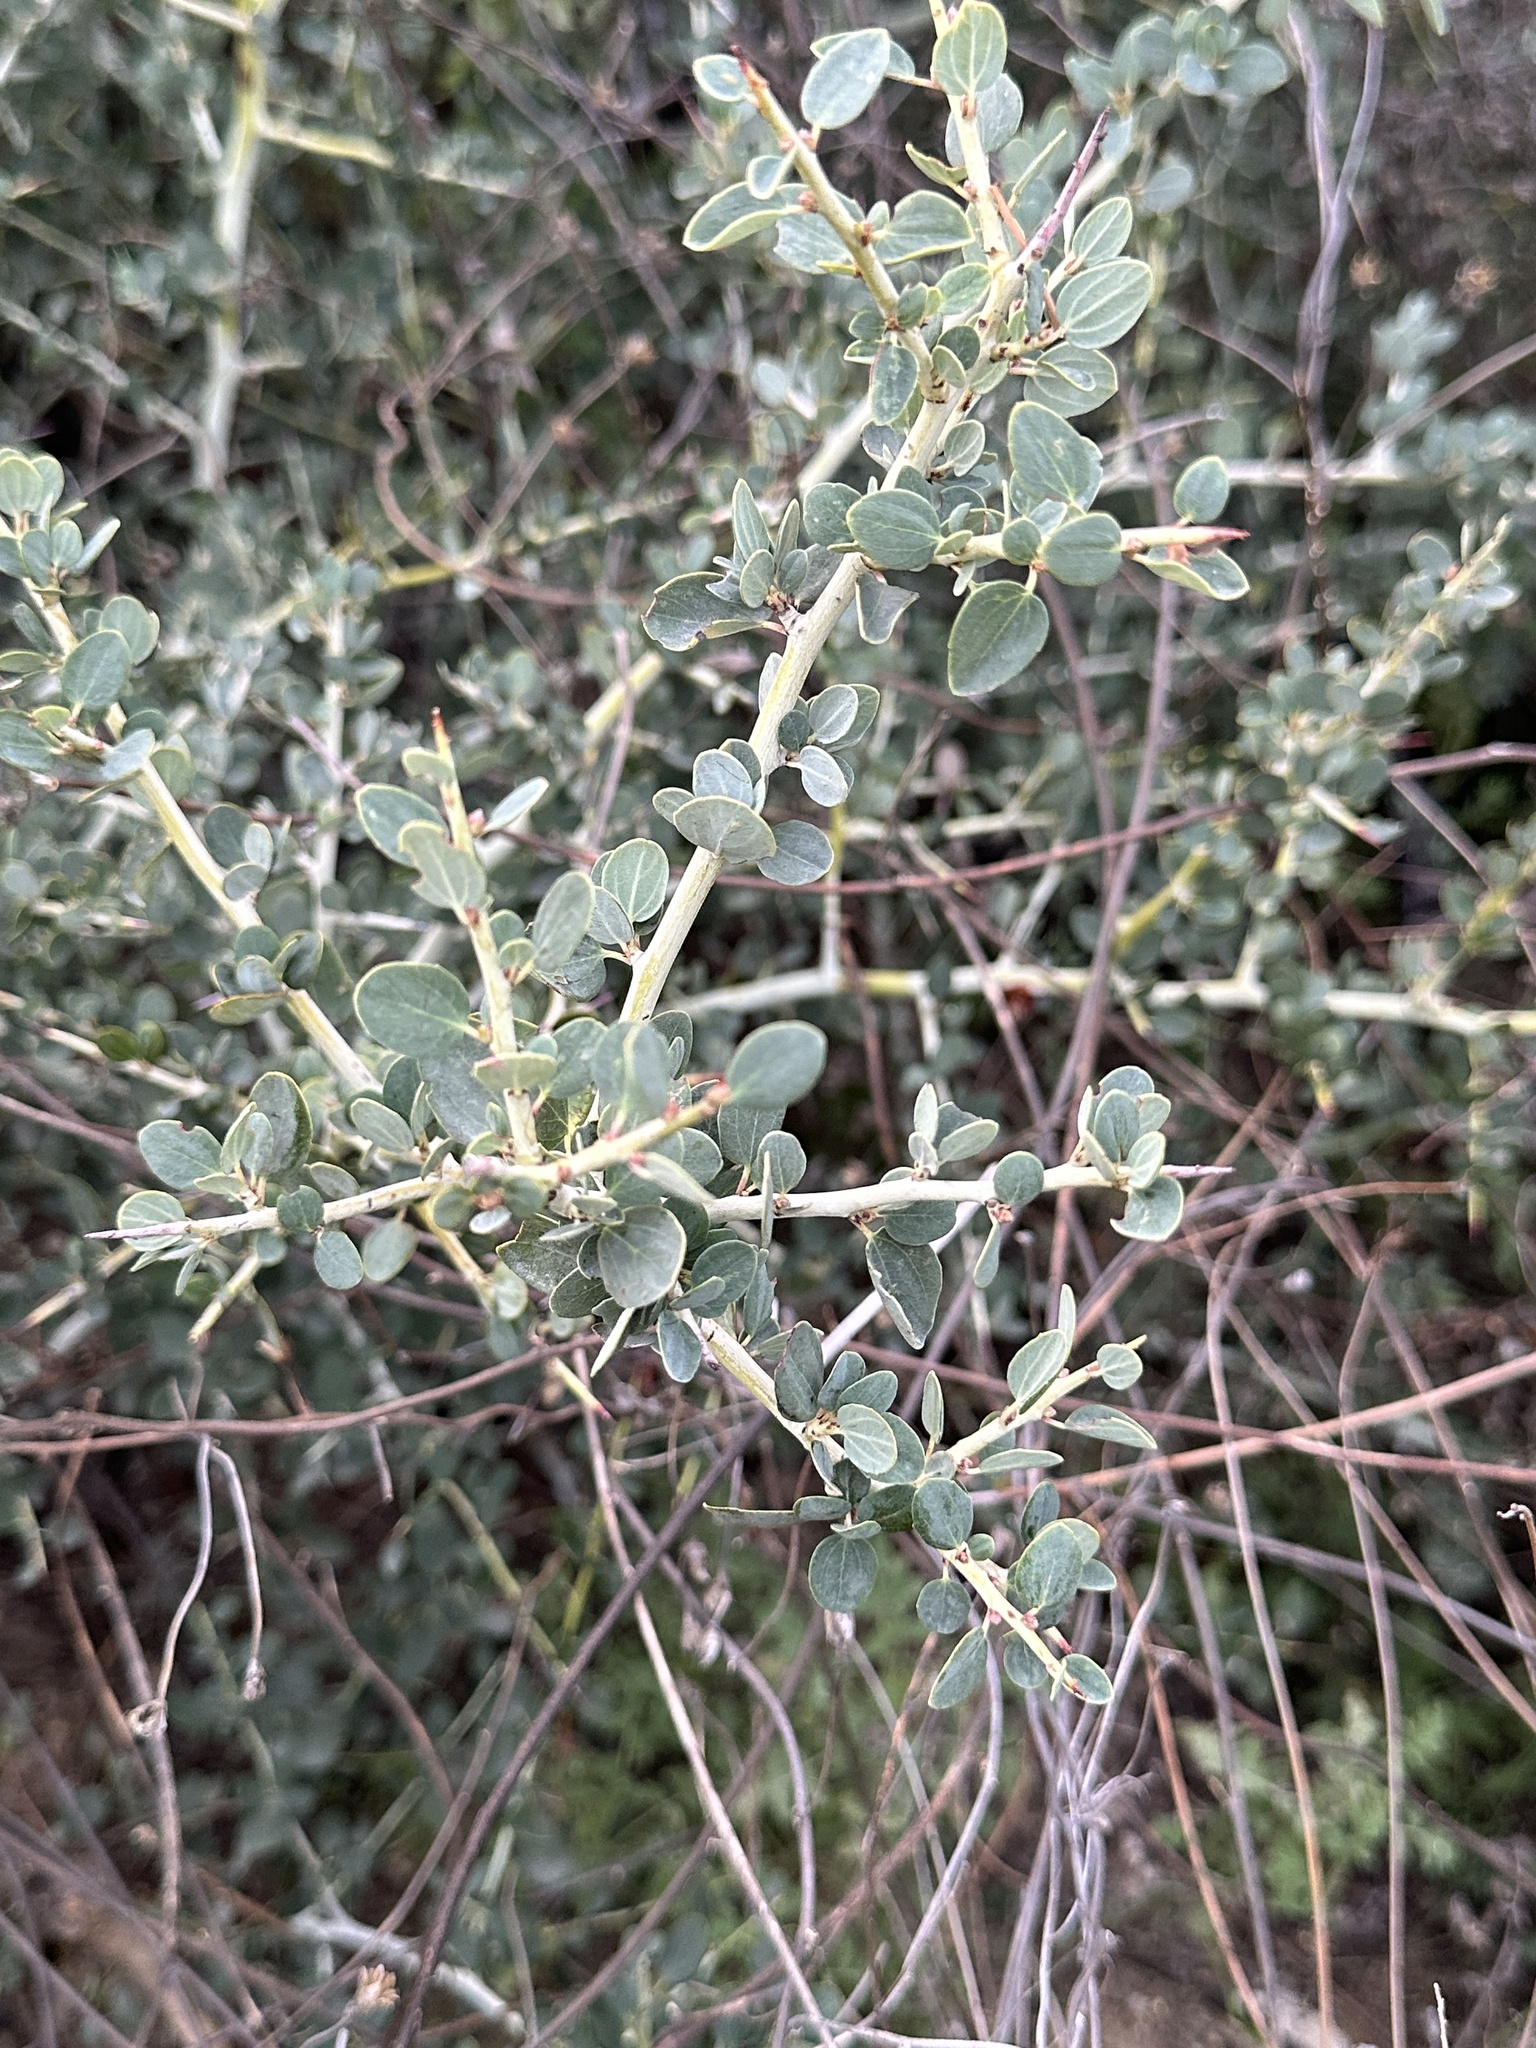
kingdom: Plantae
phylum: Tracheophyta
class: Magnoliopsida
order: Rosales
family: Rhamnaceae
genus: Ceanothus
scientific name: Ceanothus leucodermis
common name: Chaparral whitethorn
